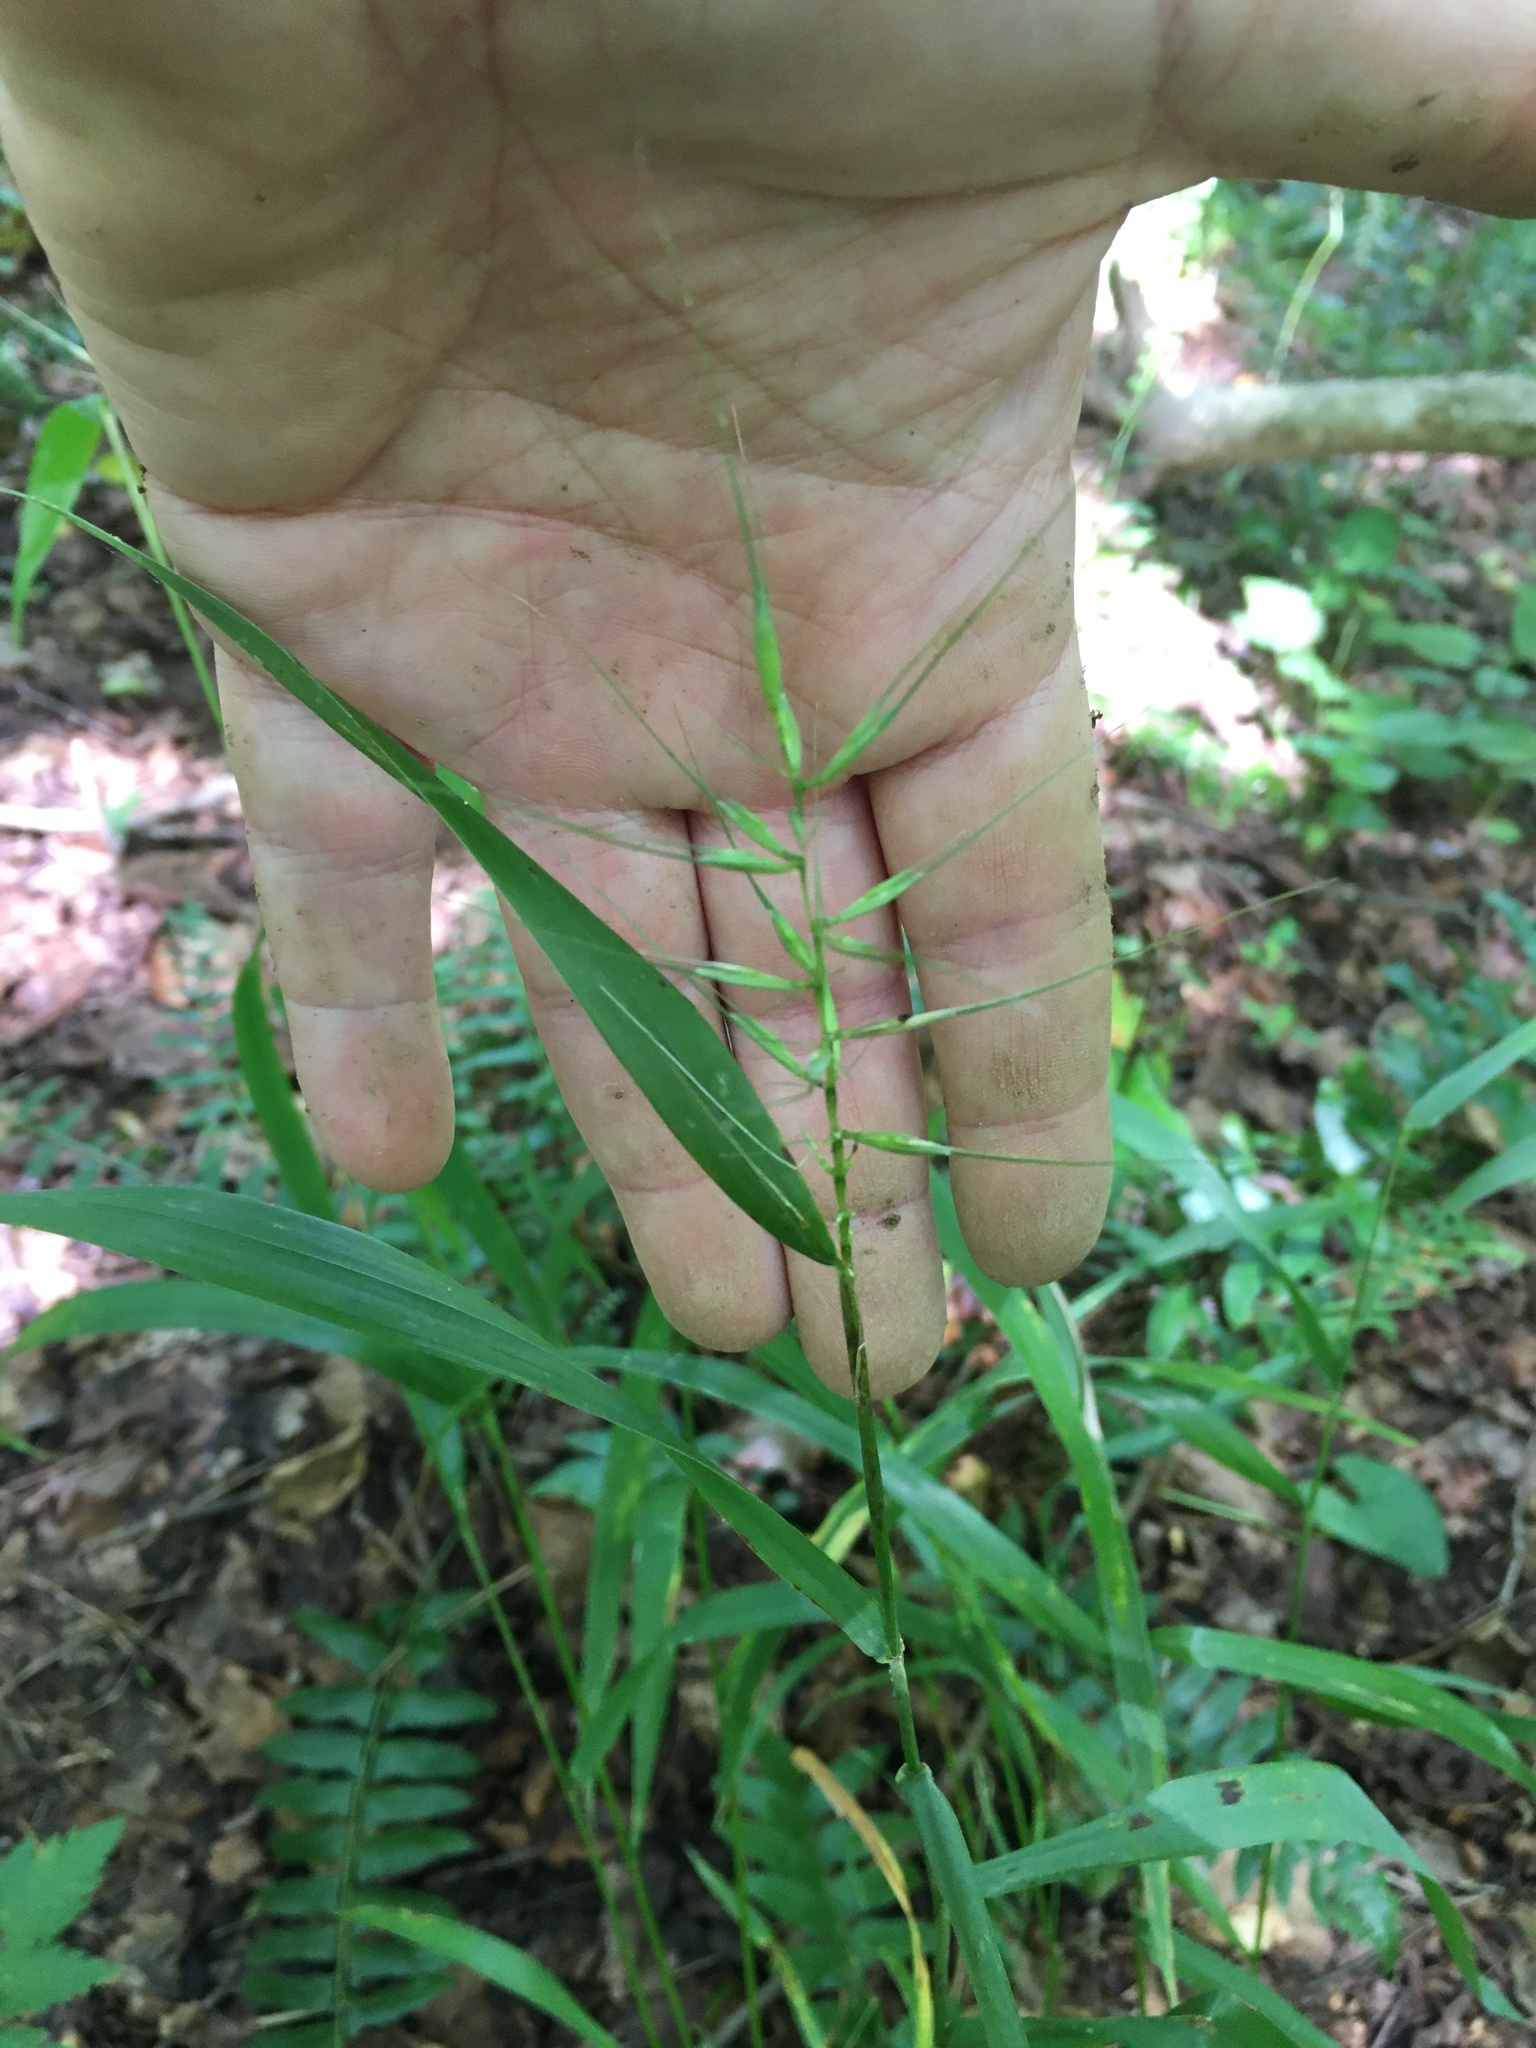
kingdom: Plantae
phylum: Tracheophyta
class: Liliopsida
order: Poales
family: Poaceae
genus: Elymus
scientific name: Elymus hystrix
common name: Bottlebrush grass
